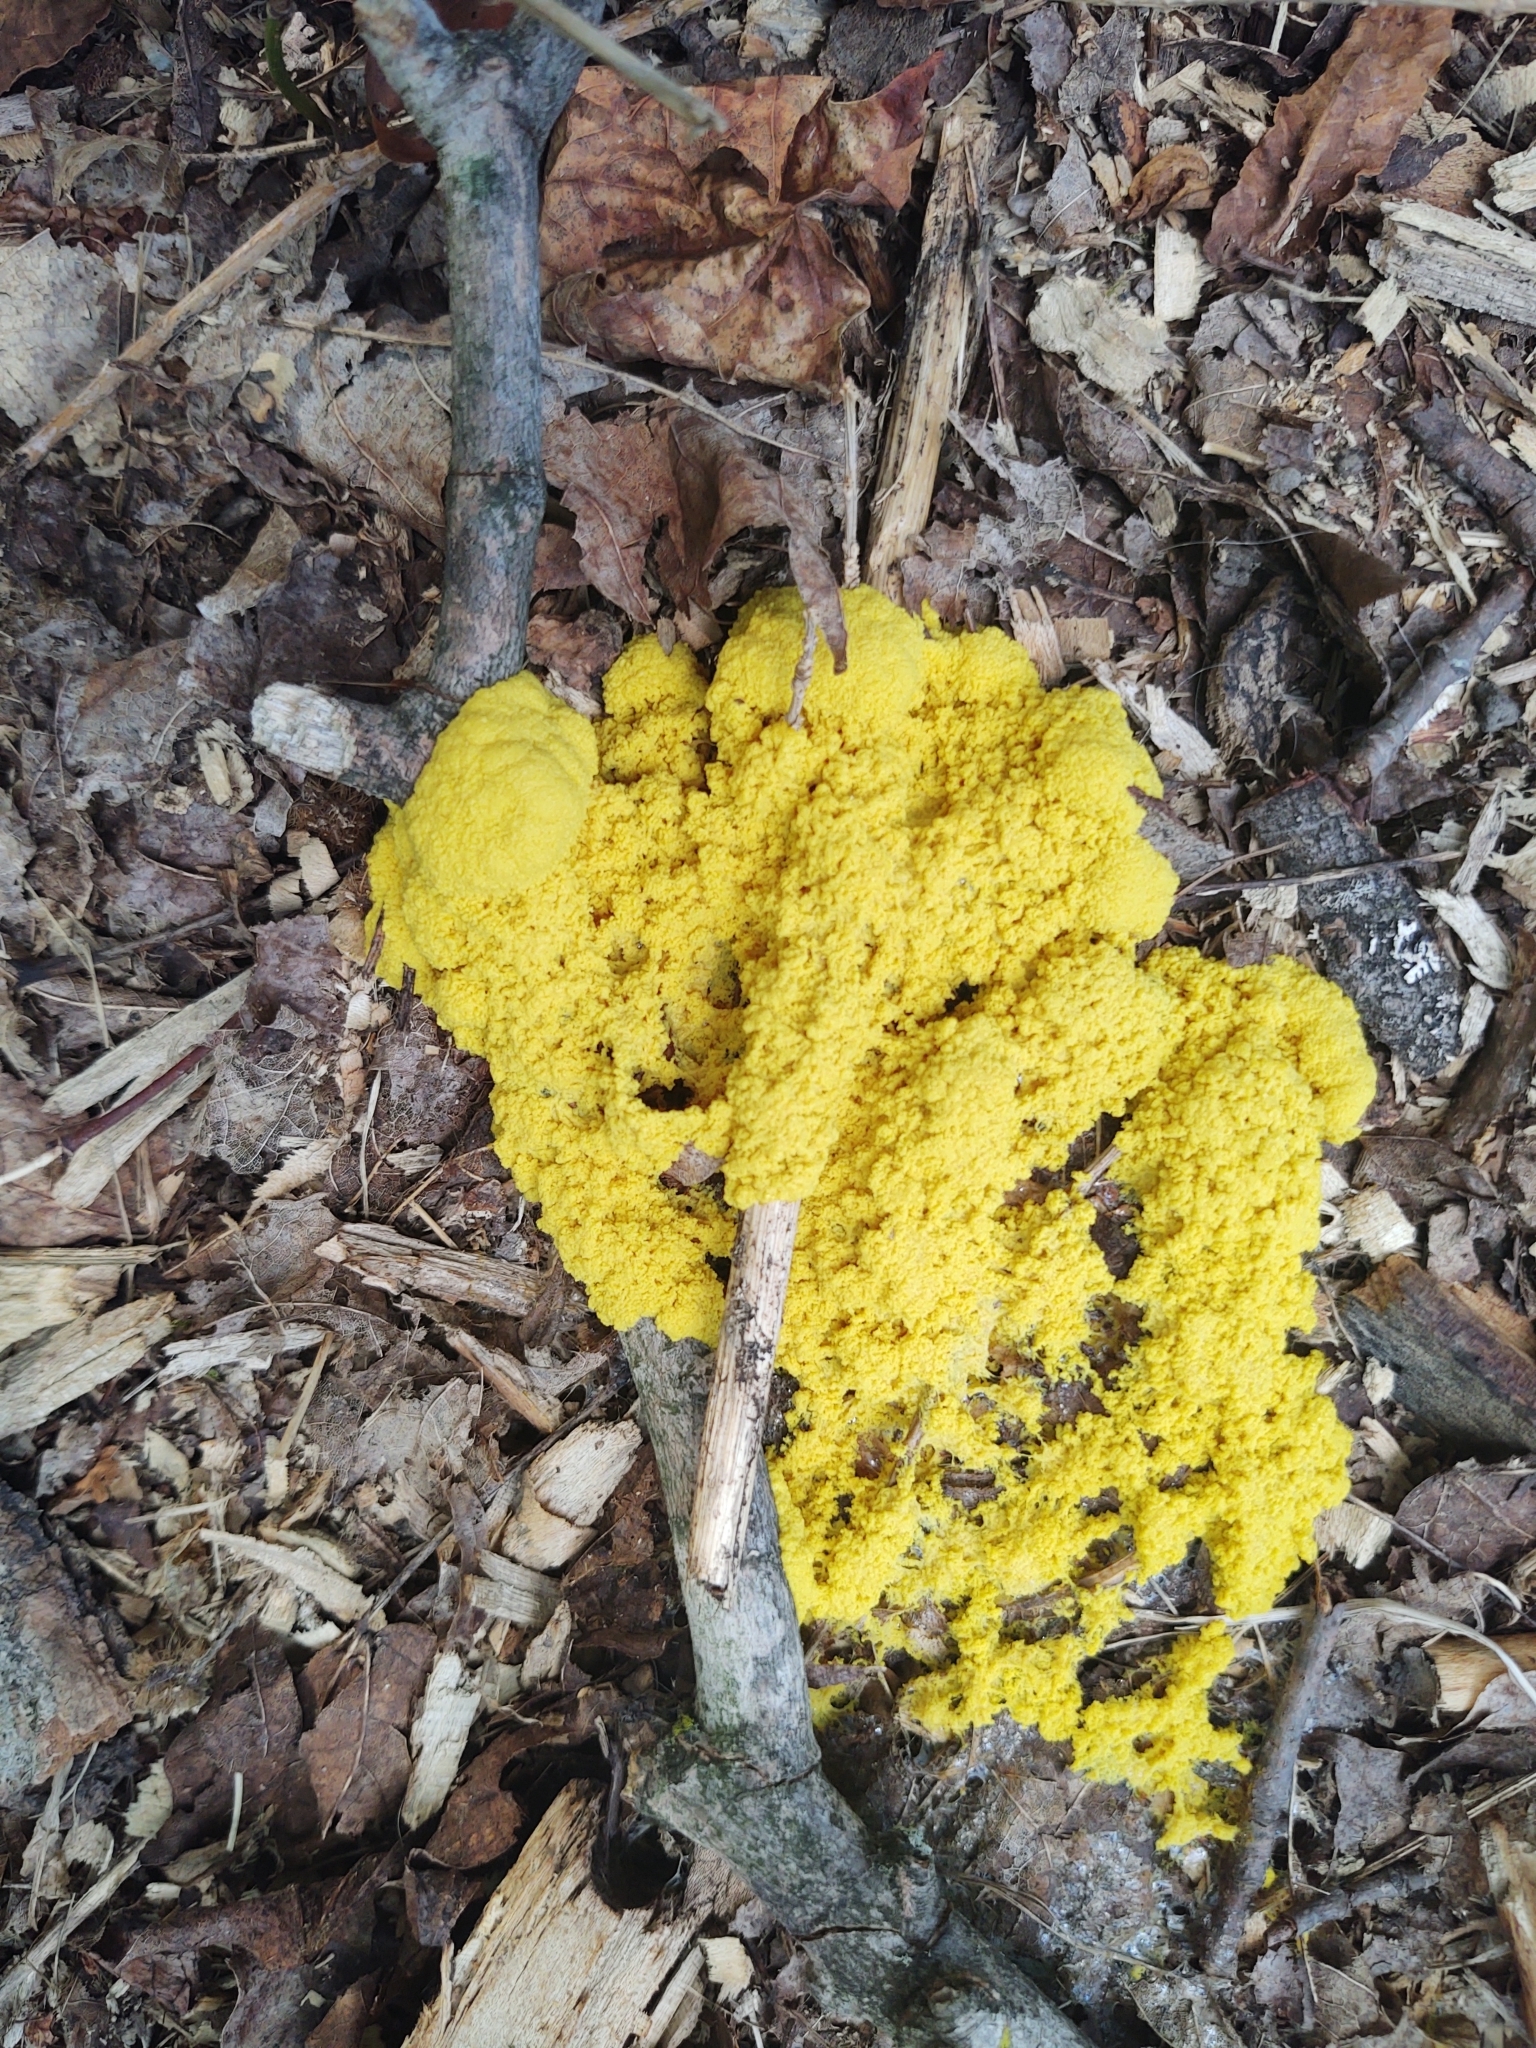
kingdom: Protozoa
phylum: Mycetozoa
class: Myxomycetes
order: Physarales
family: Physaraceae
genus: Fuligo
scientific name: Fuligo septica
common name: Dog vomit slime mold
